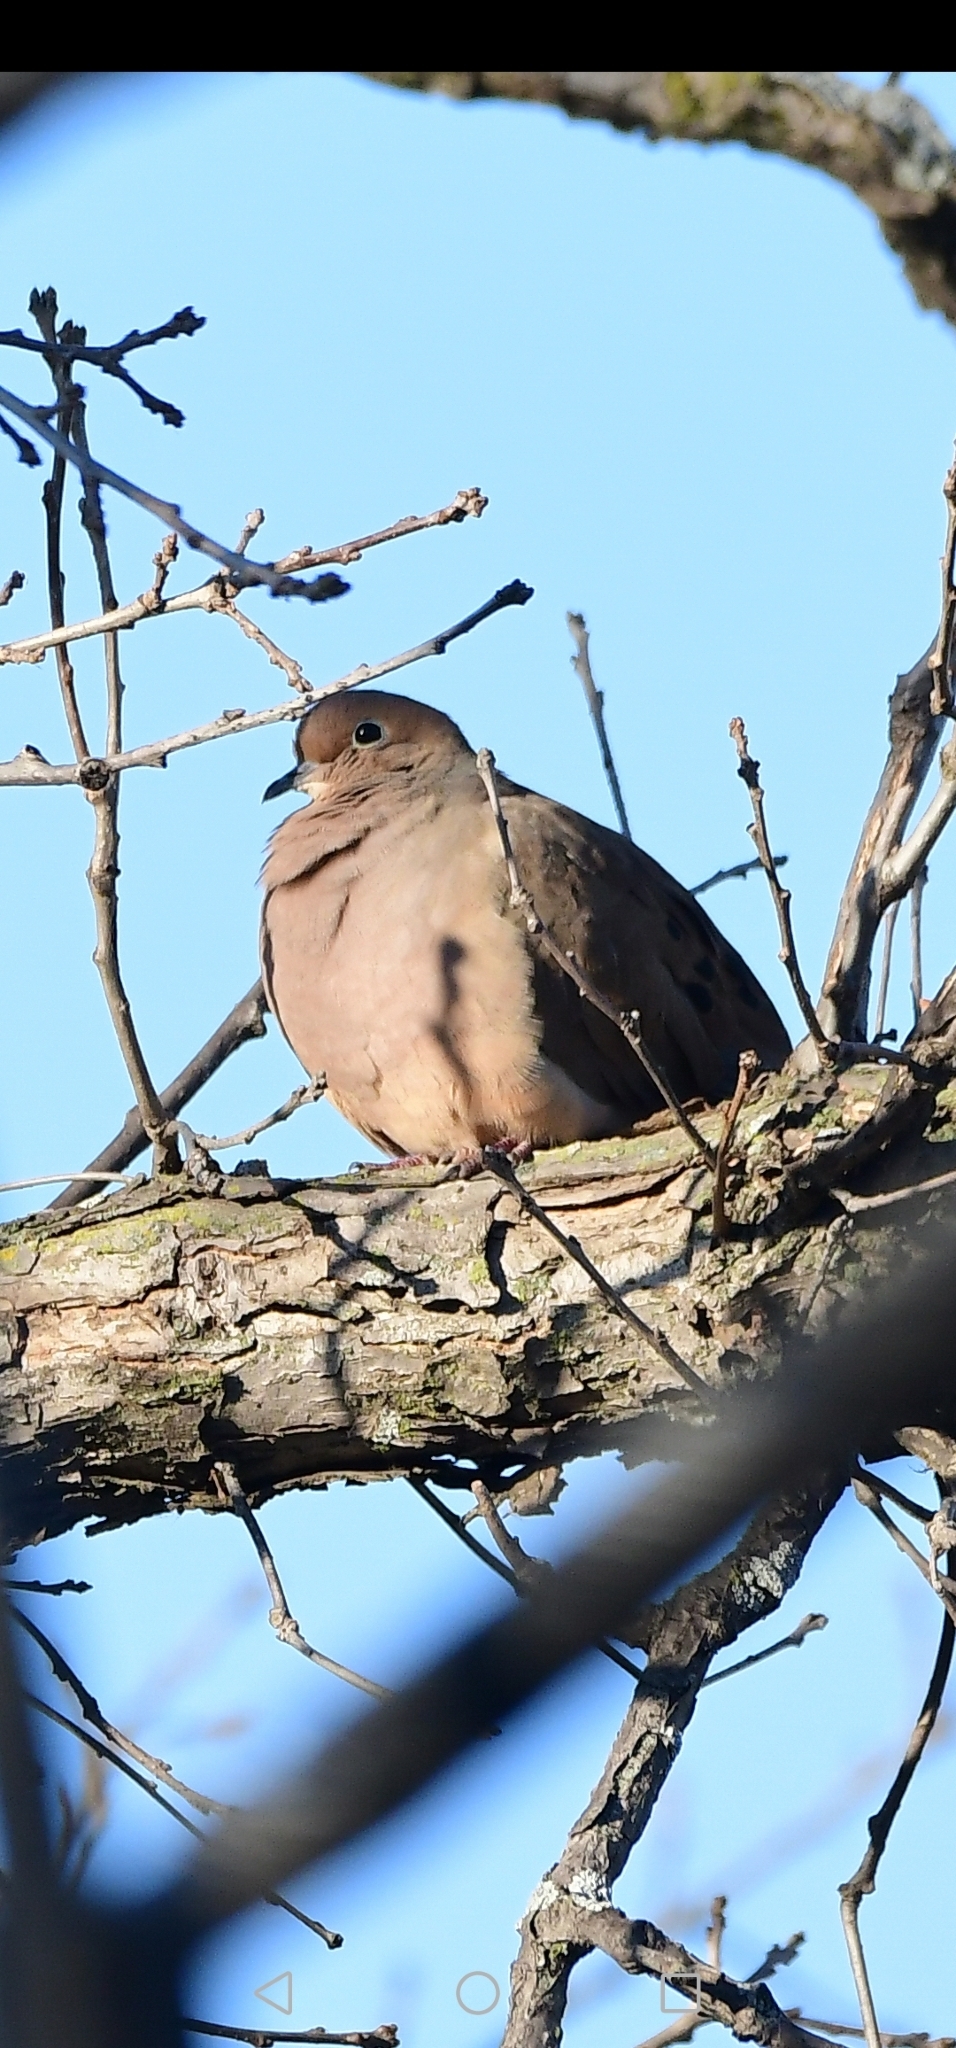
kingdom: Animalia
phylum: Chordata
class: Aves
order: Columbiformes
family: Columbidae
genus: Zenaida
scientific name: Zenaida macroura
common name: Mourning dove
